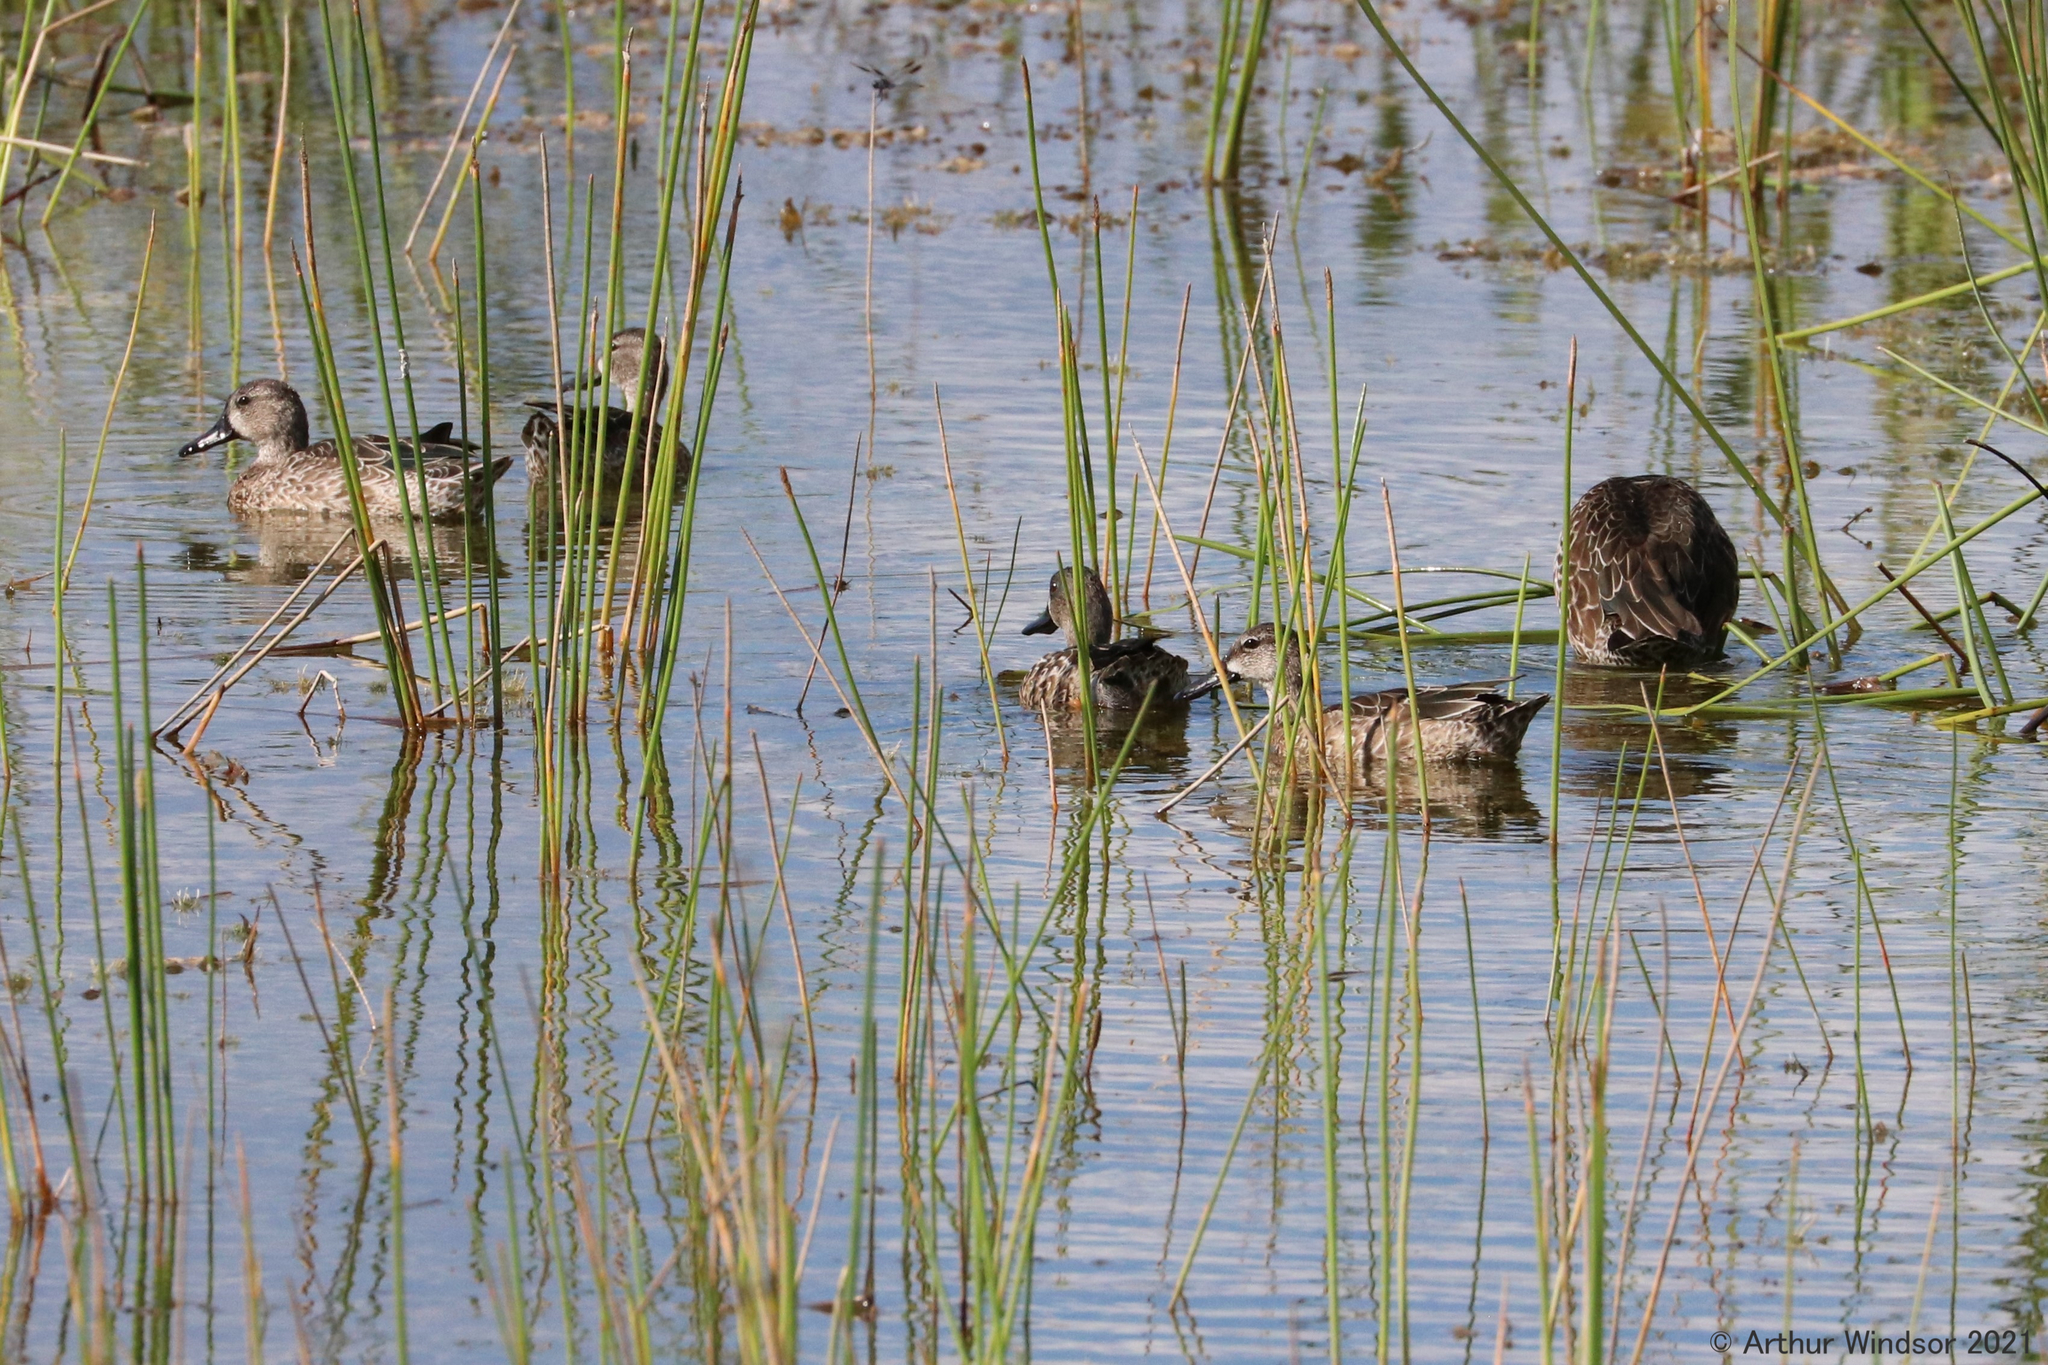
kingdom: Animalia
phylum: Chordata
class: Aves
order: Anseriformes
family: Anatidae
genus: Spatula
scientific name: Spatula discors
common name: Blue-winged teal
